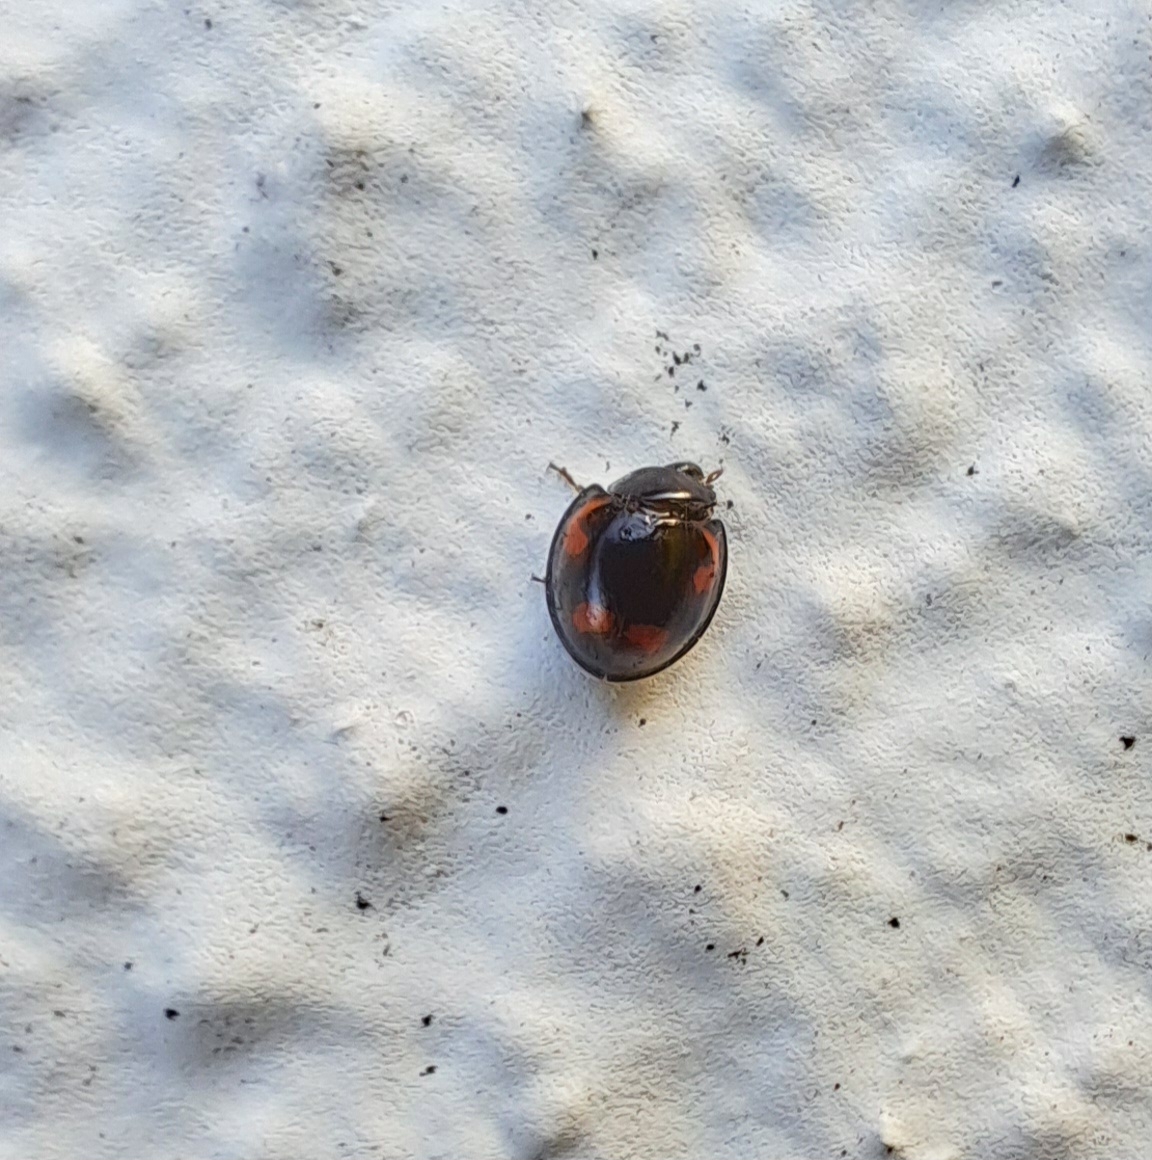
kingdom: Animalia
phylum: Arthropoda
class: Insecta
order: Coleoptera
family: Coccinellidae
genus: Brumus
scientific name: Brumus quadripustulatus
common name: Ladybird beetle
